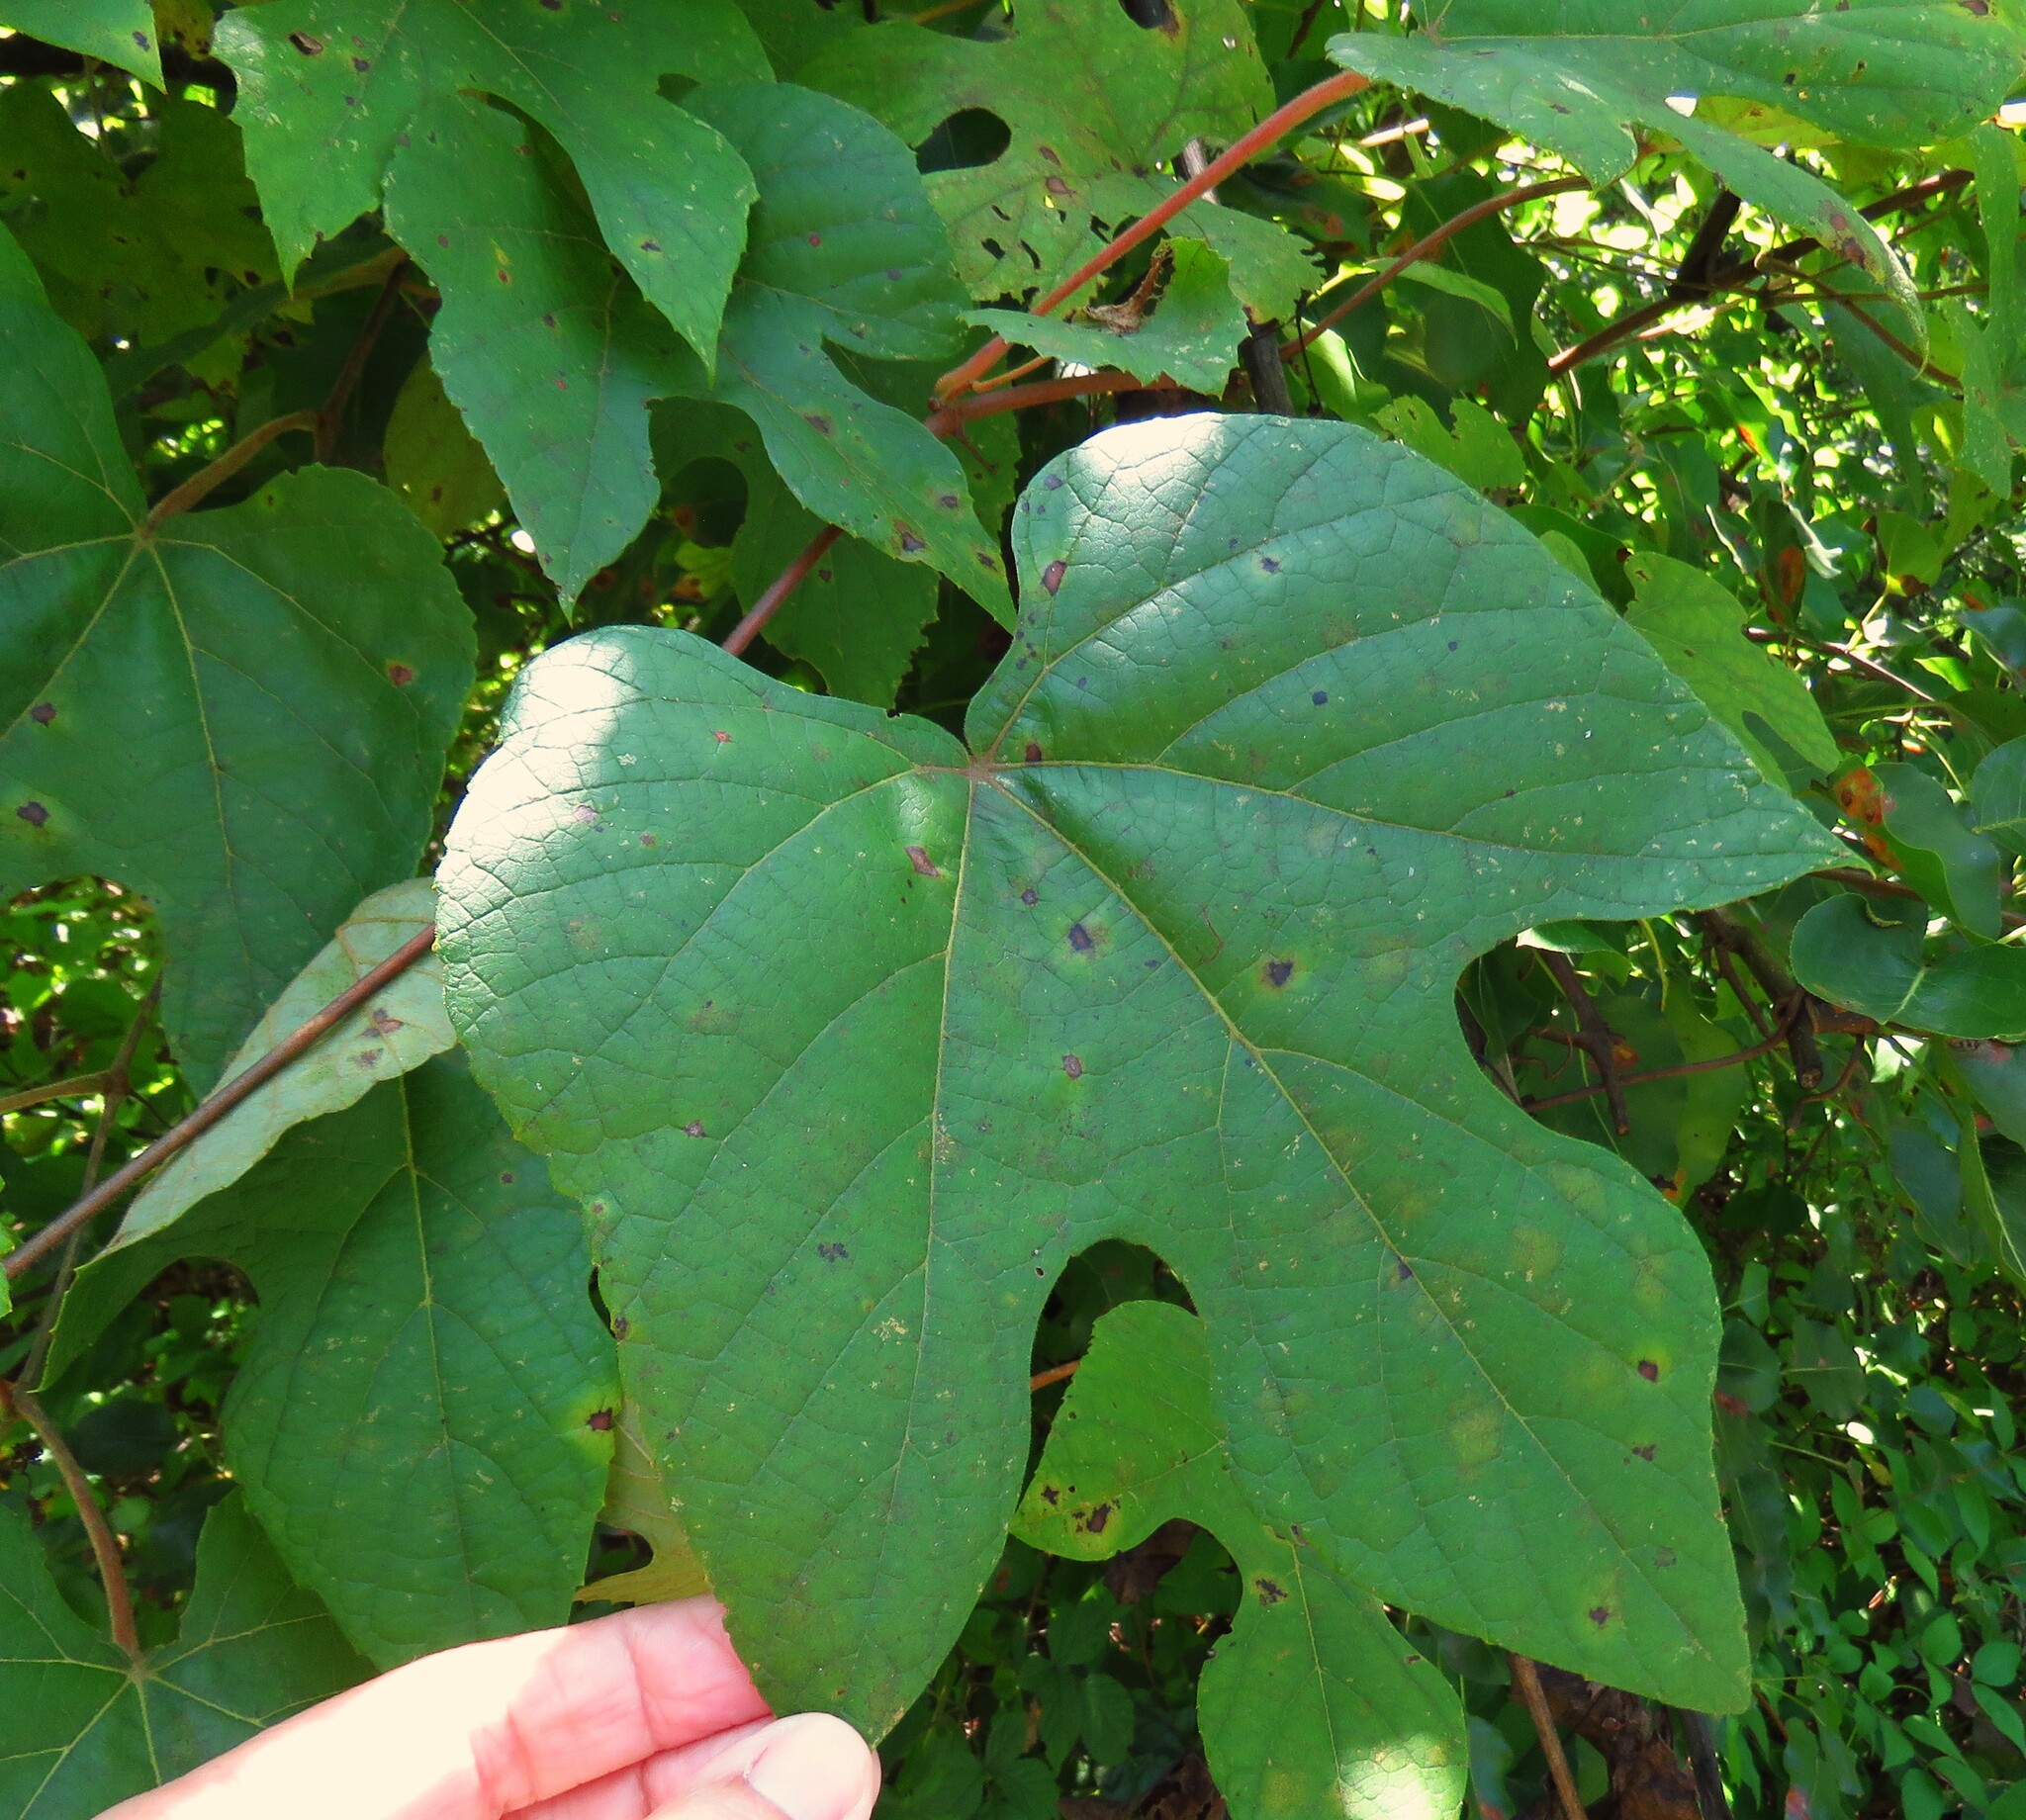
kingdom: Plantae
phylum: Tracheophyta
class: Magnoliopsida
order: Vitales
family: Vitaceae
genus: Vitis
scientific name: Vitis aestivalis
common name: Pigeon grape
